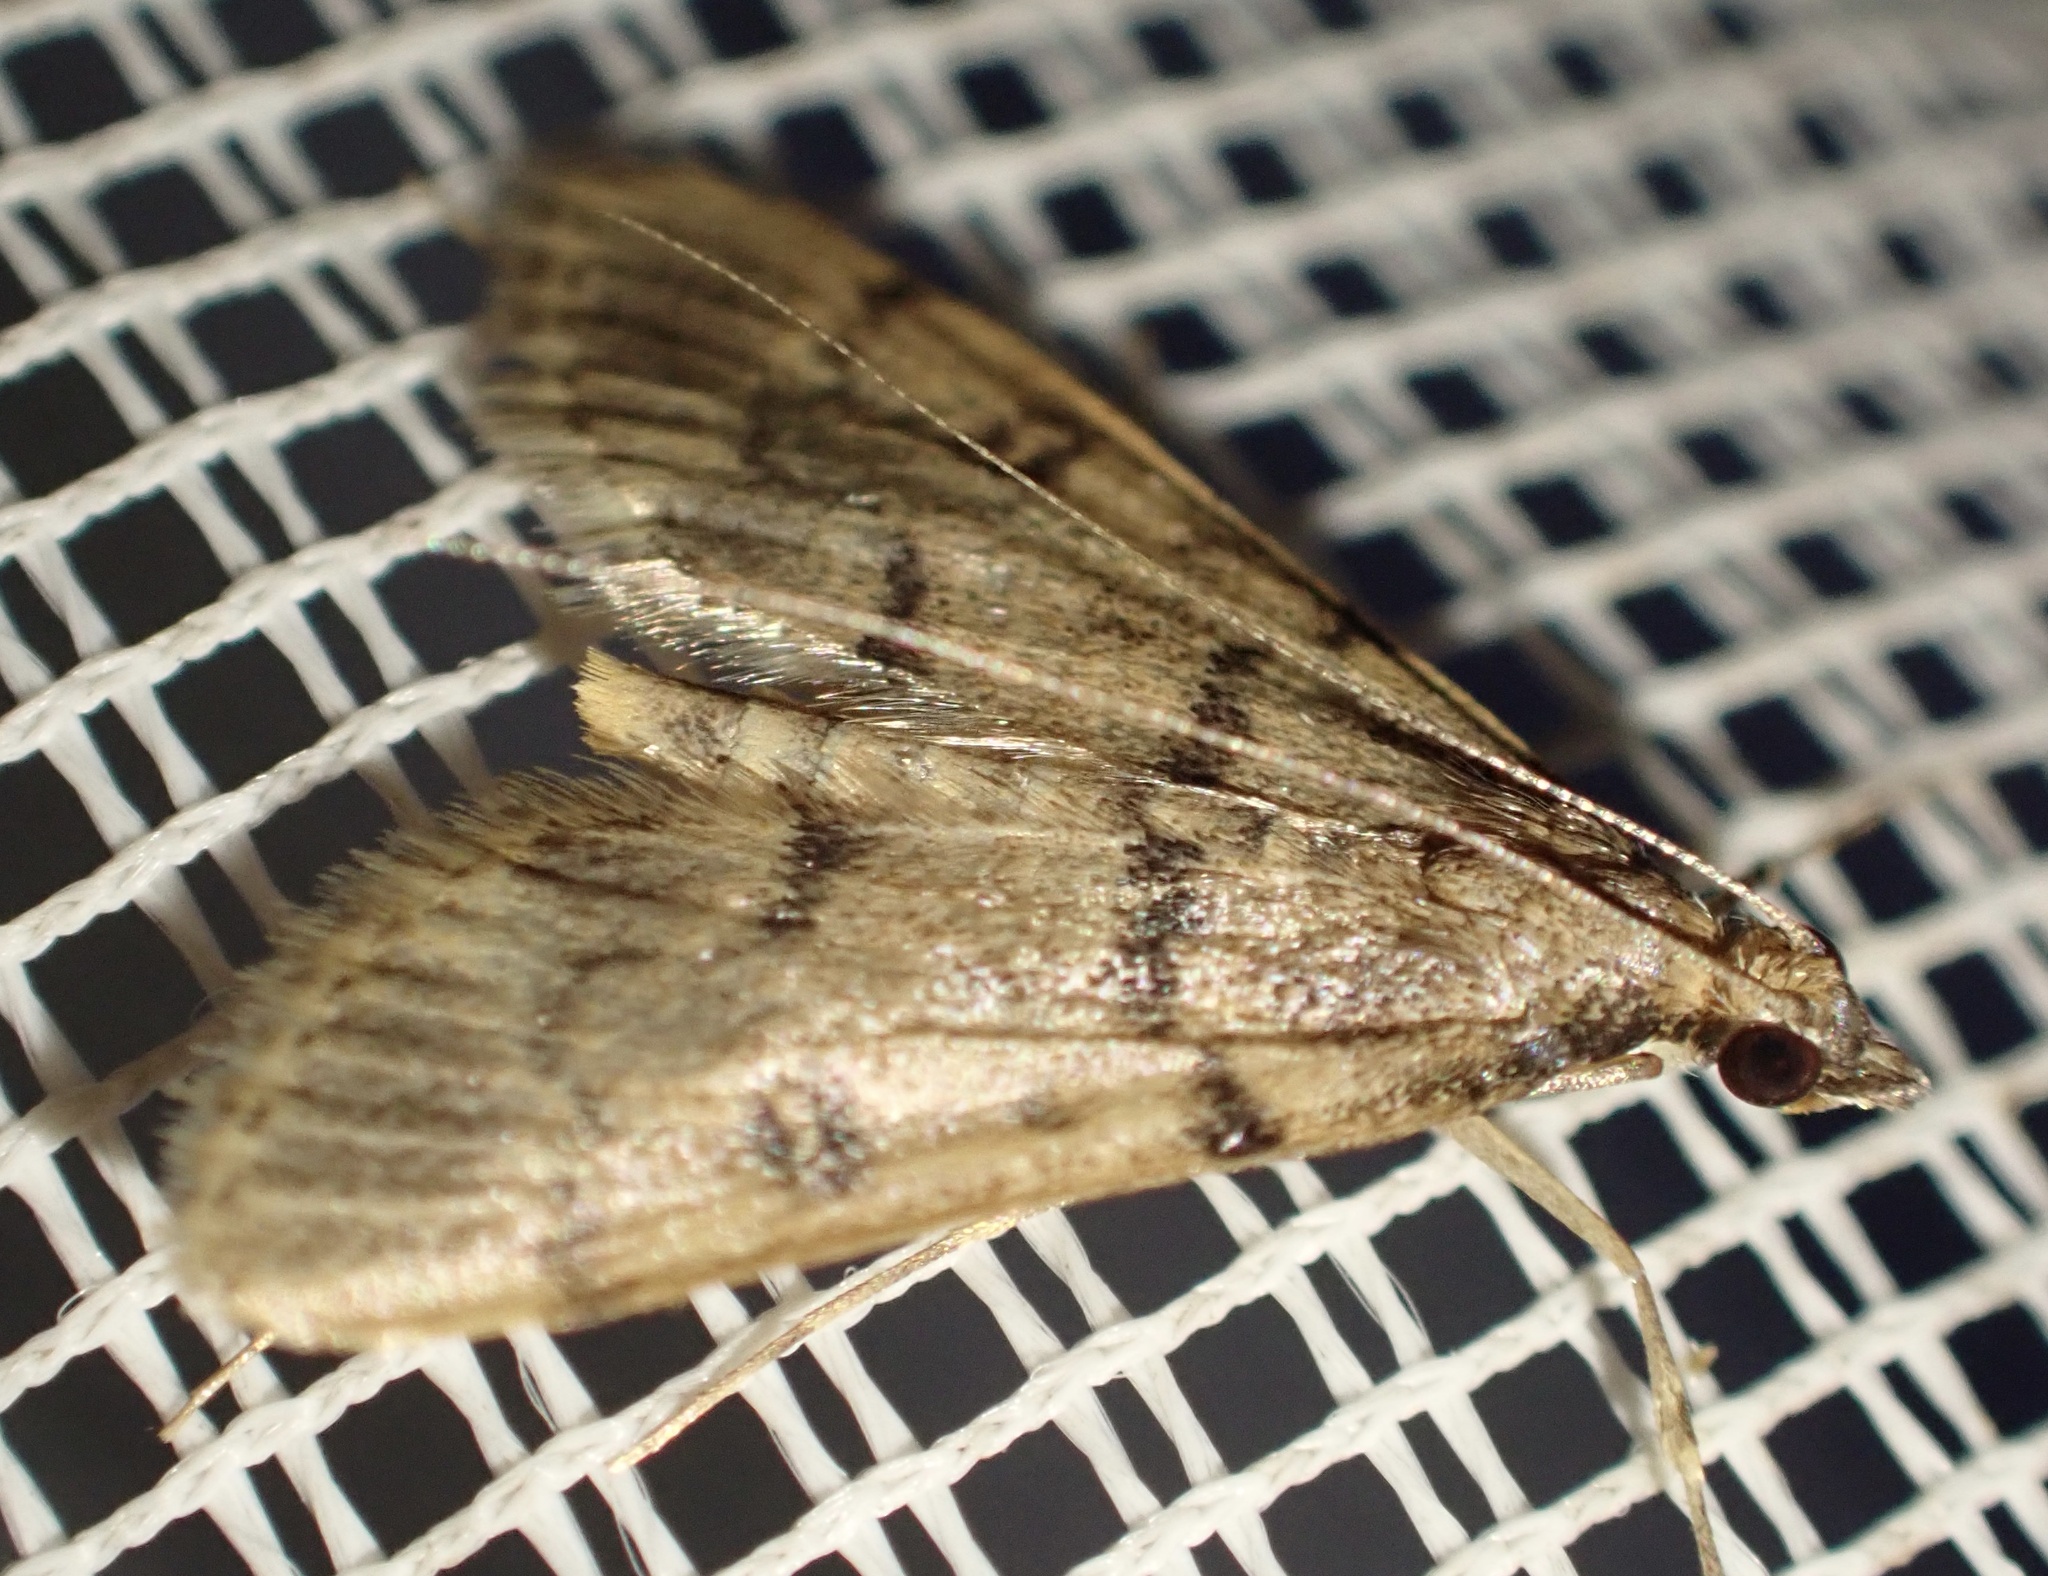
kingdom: Animalia
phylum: Arthropoda
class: Insecta
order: Lepidoptera
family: Crambidae
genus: Stenia
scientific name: Stenia Dolicharthria bruguieralis
